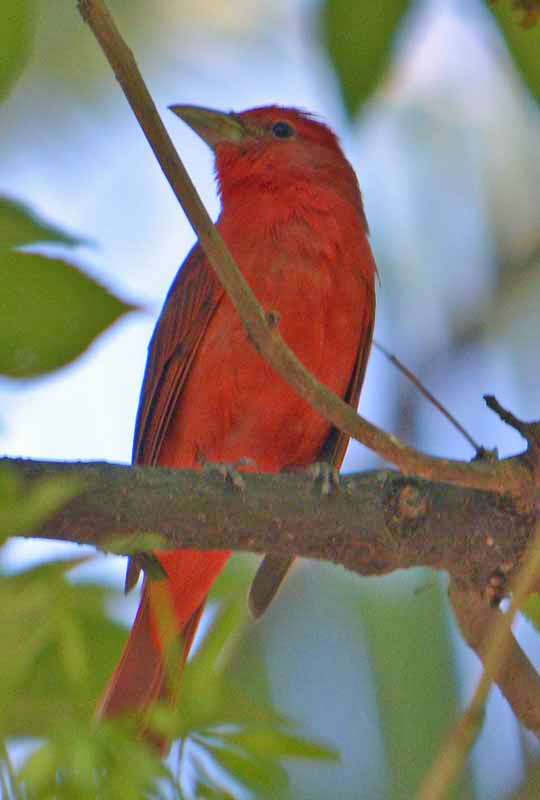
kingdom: Animalia
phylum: Chordata
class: Aves
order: Passeriformes
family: Cardinalidae
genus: Piranga
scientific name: Piranga rubra
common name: Summer tanager
